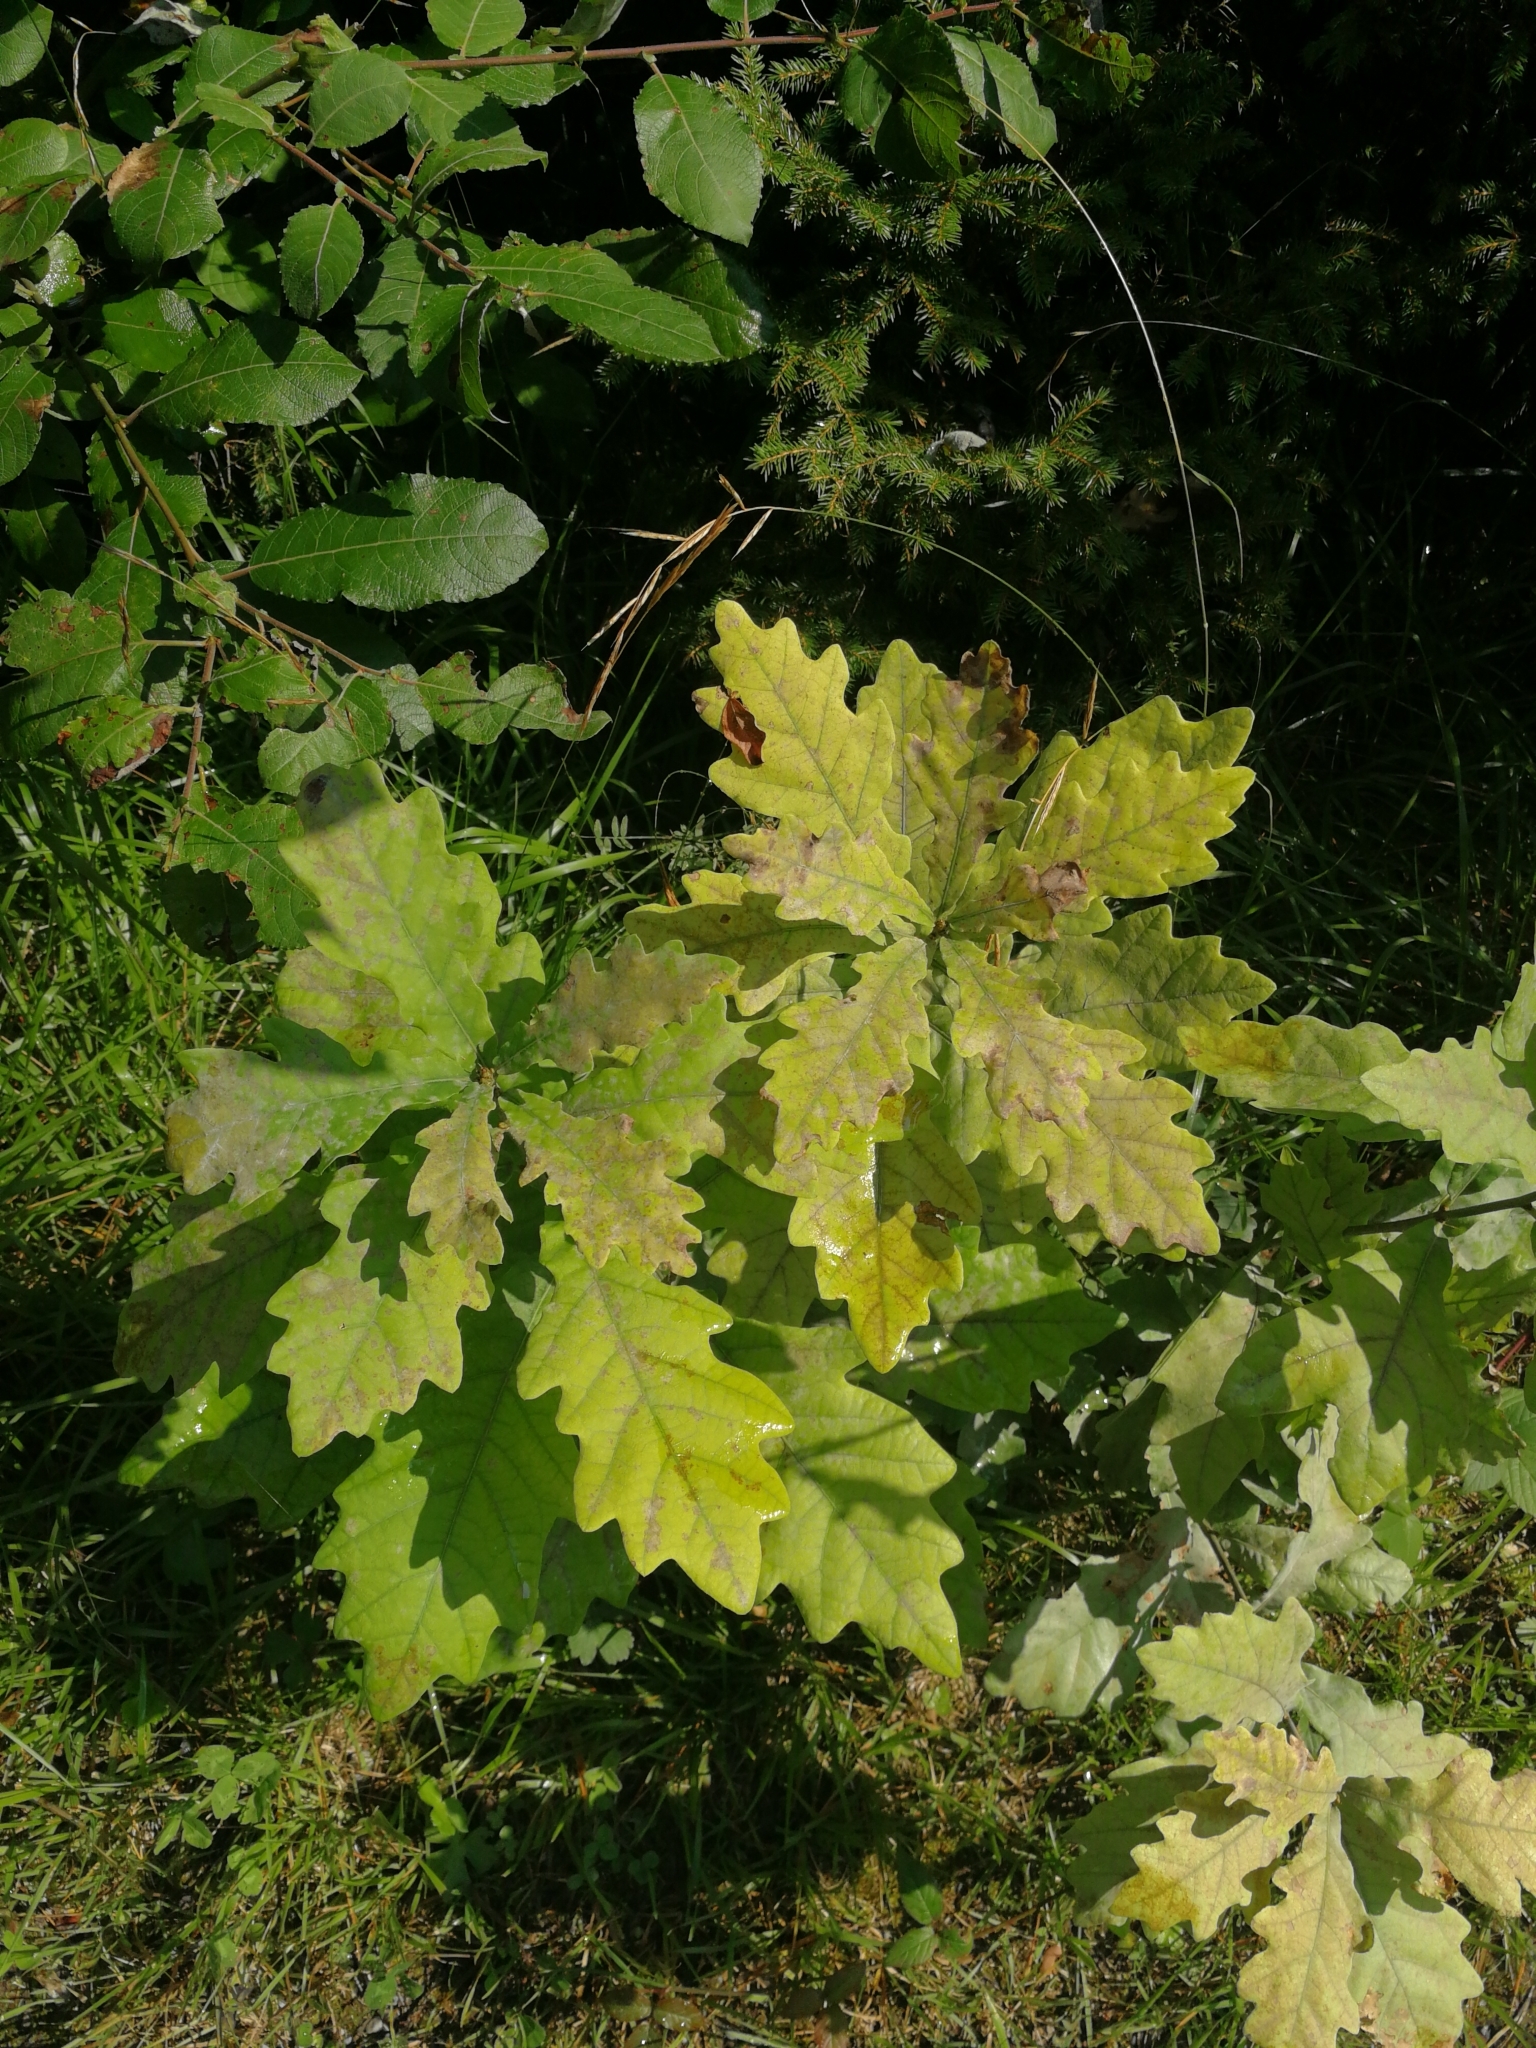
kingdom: Plantae
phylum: Tracheophyta
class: Magnoliopsida
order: Fagales
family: Fagaceae
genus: Quercus
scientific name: Quercus robur
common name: Pedunculate oak
